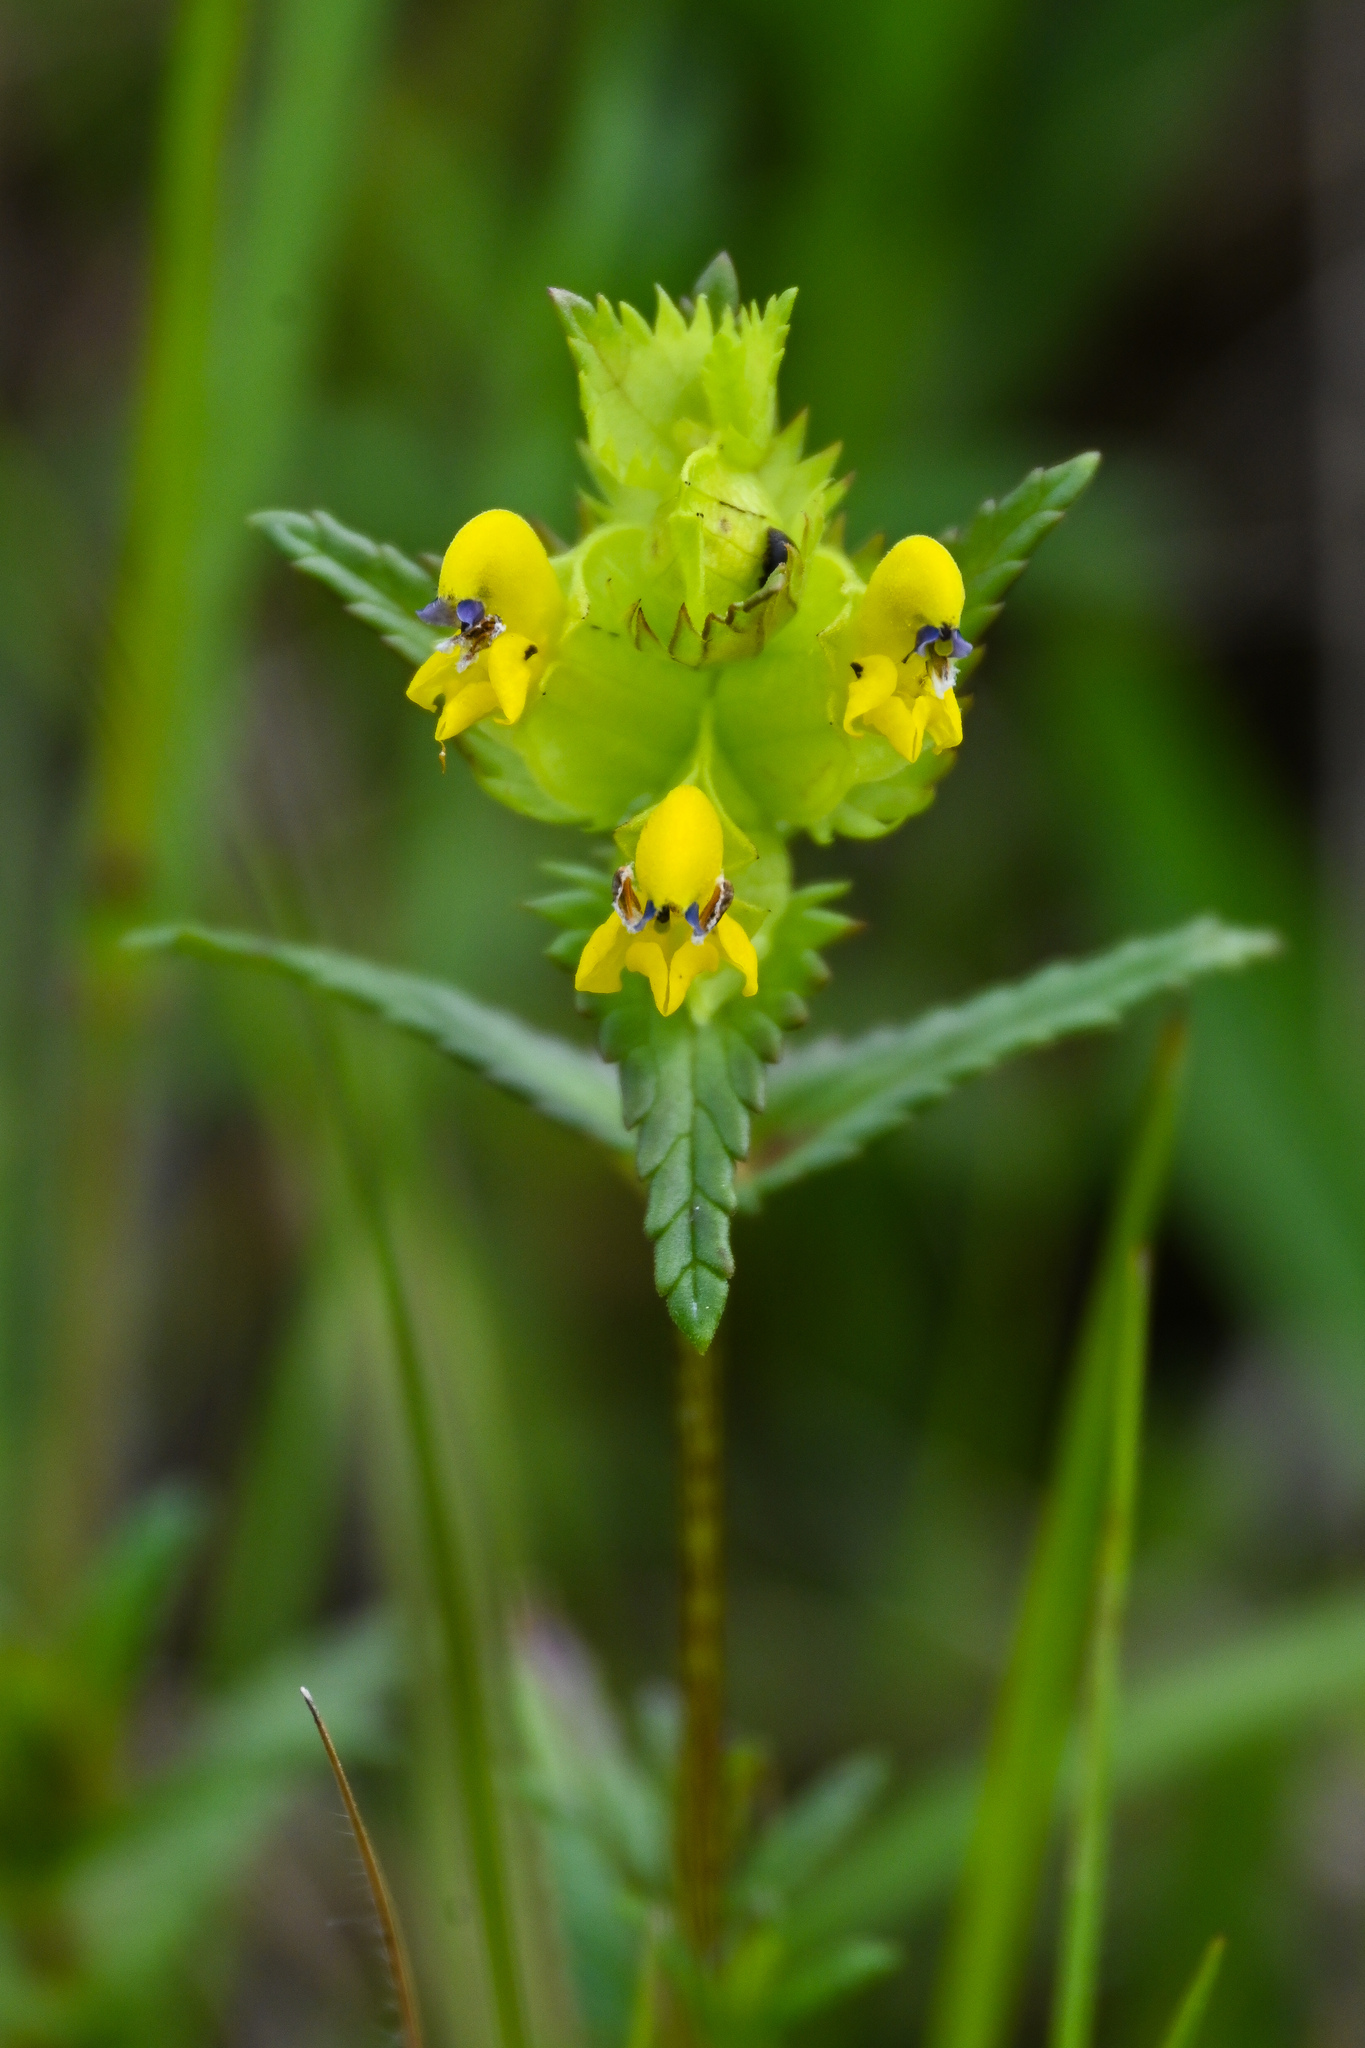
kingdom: Plantae
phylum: Tracheophyta
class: Magnoliopsida
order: Lamiales
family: Orobanchaceae
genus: Rhinanthus
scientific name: Rhinanthus minor
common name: Yellow-rattle
